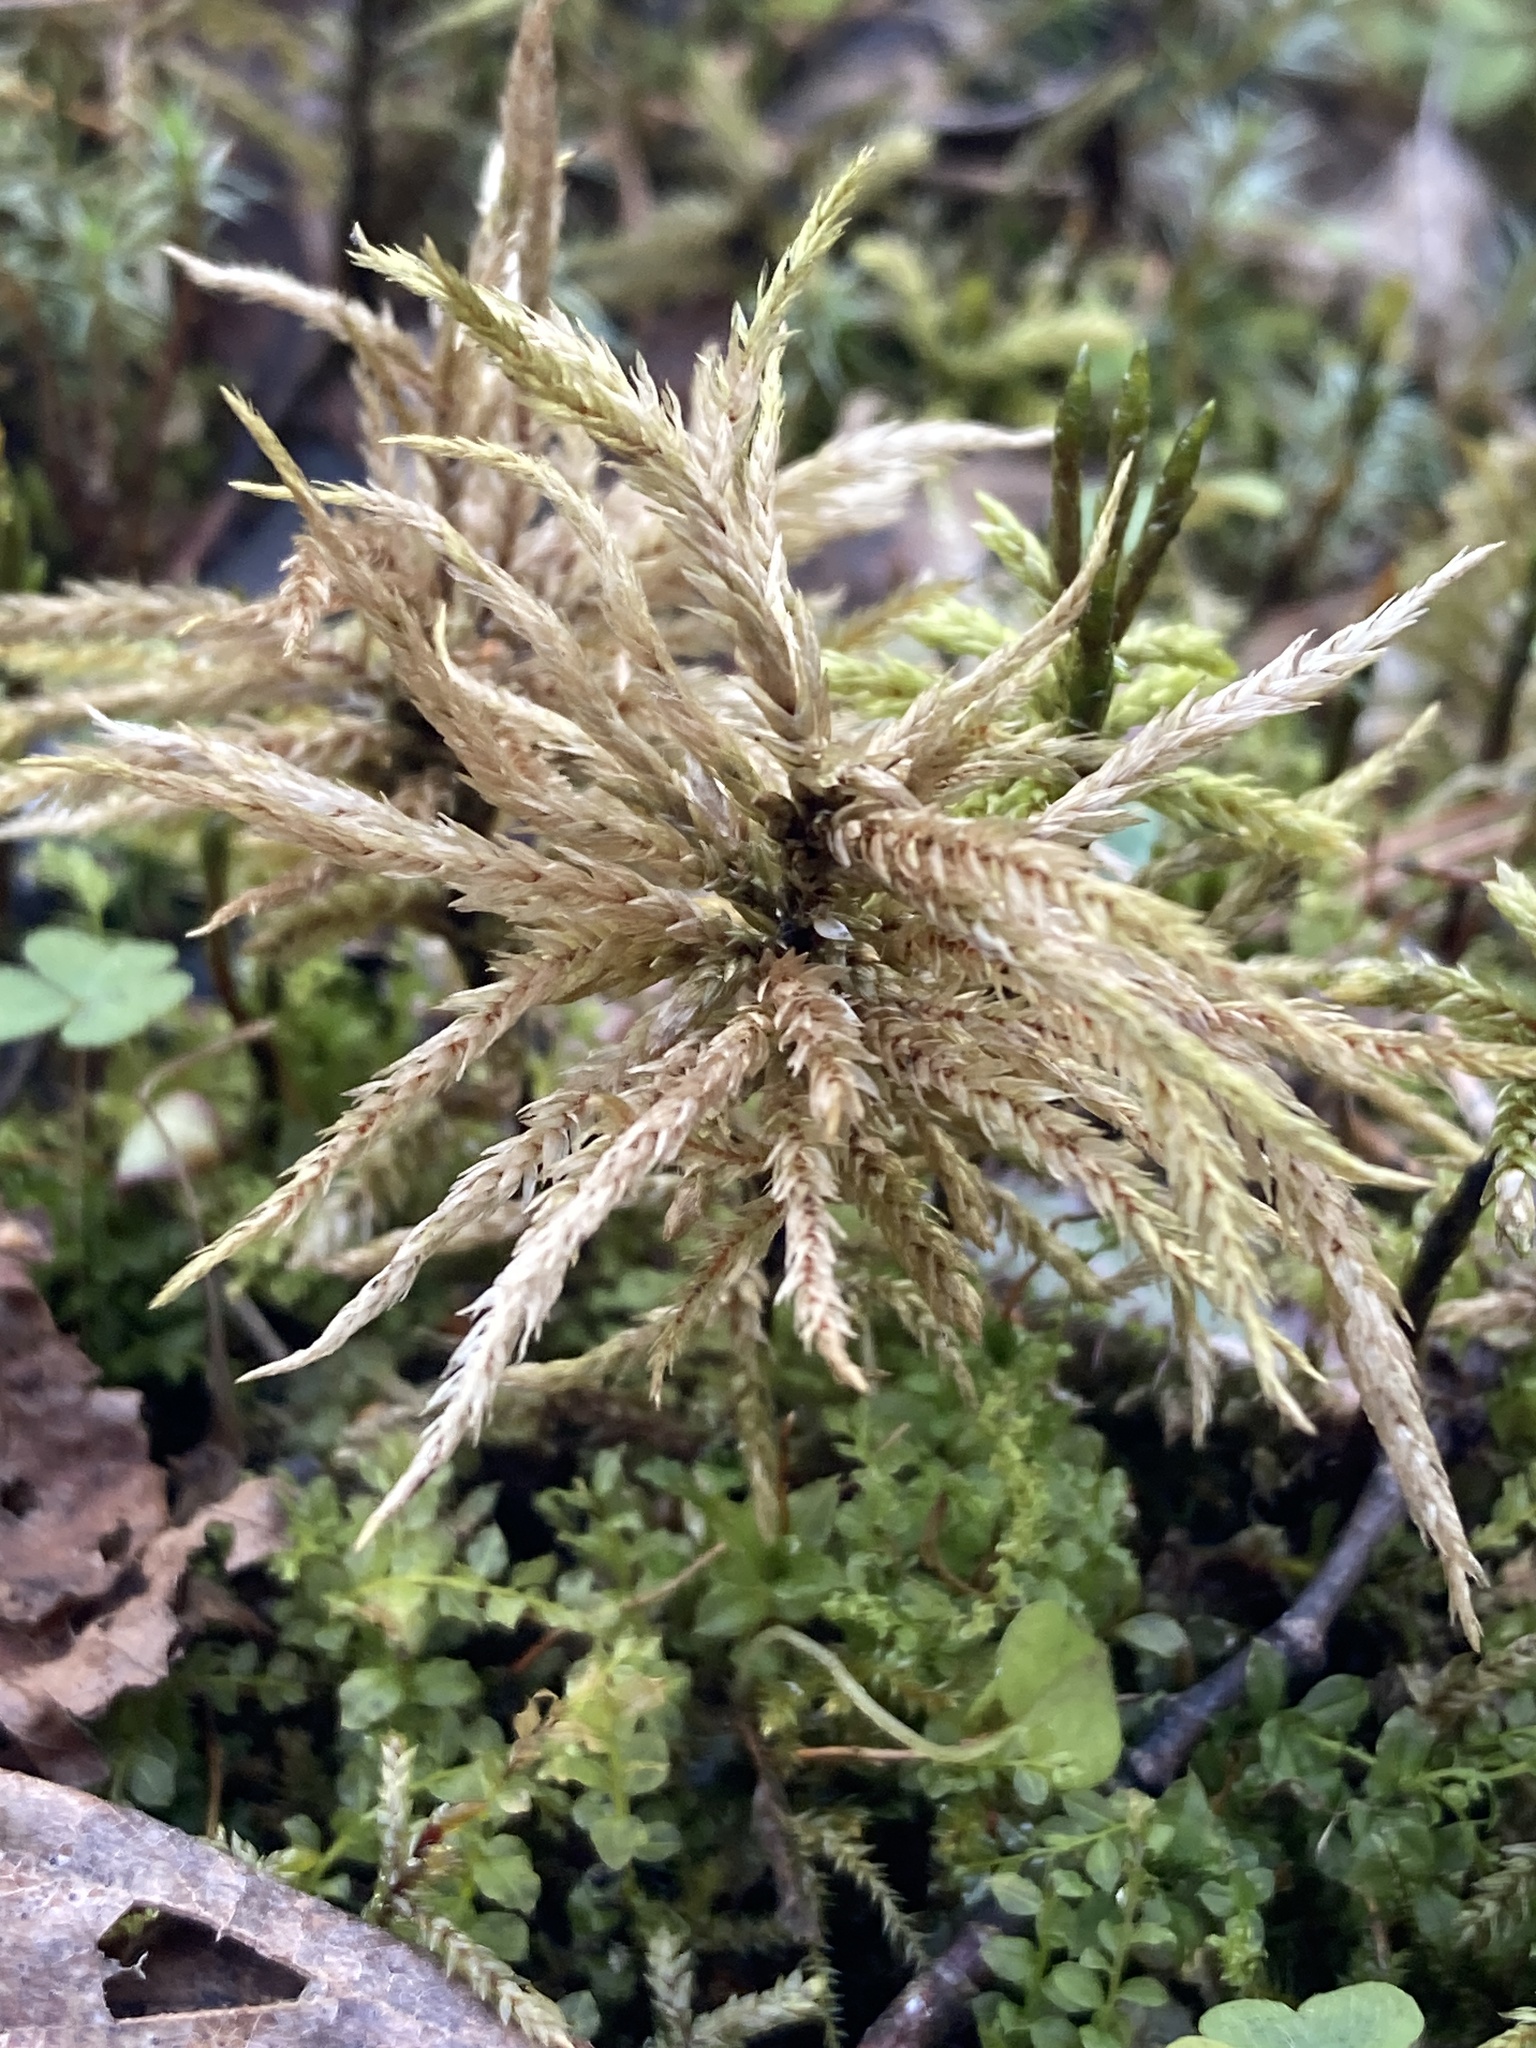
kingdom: Plantae
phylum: Bryophyta
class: Bryopsida
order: Hypnales
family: Climaciaceae
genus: Climacium
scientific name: Climacium dendroides
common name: Northern tree moss
